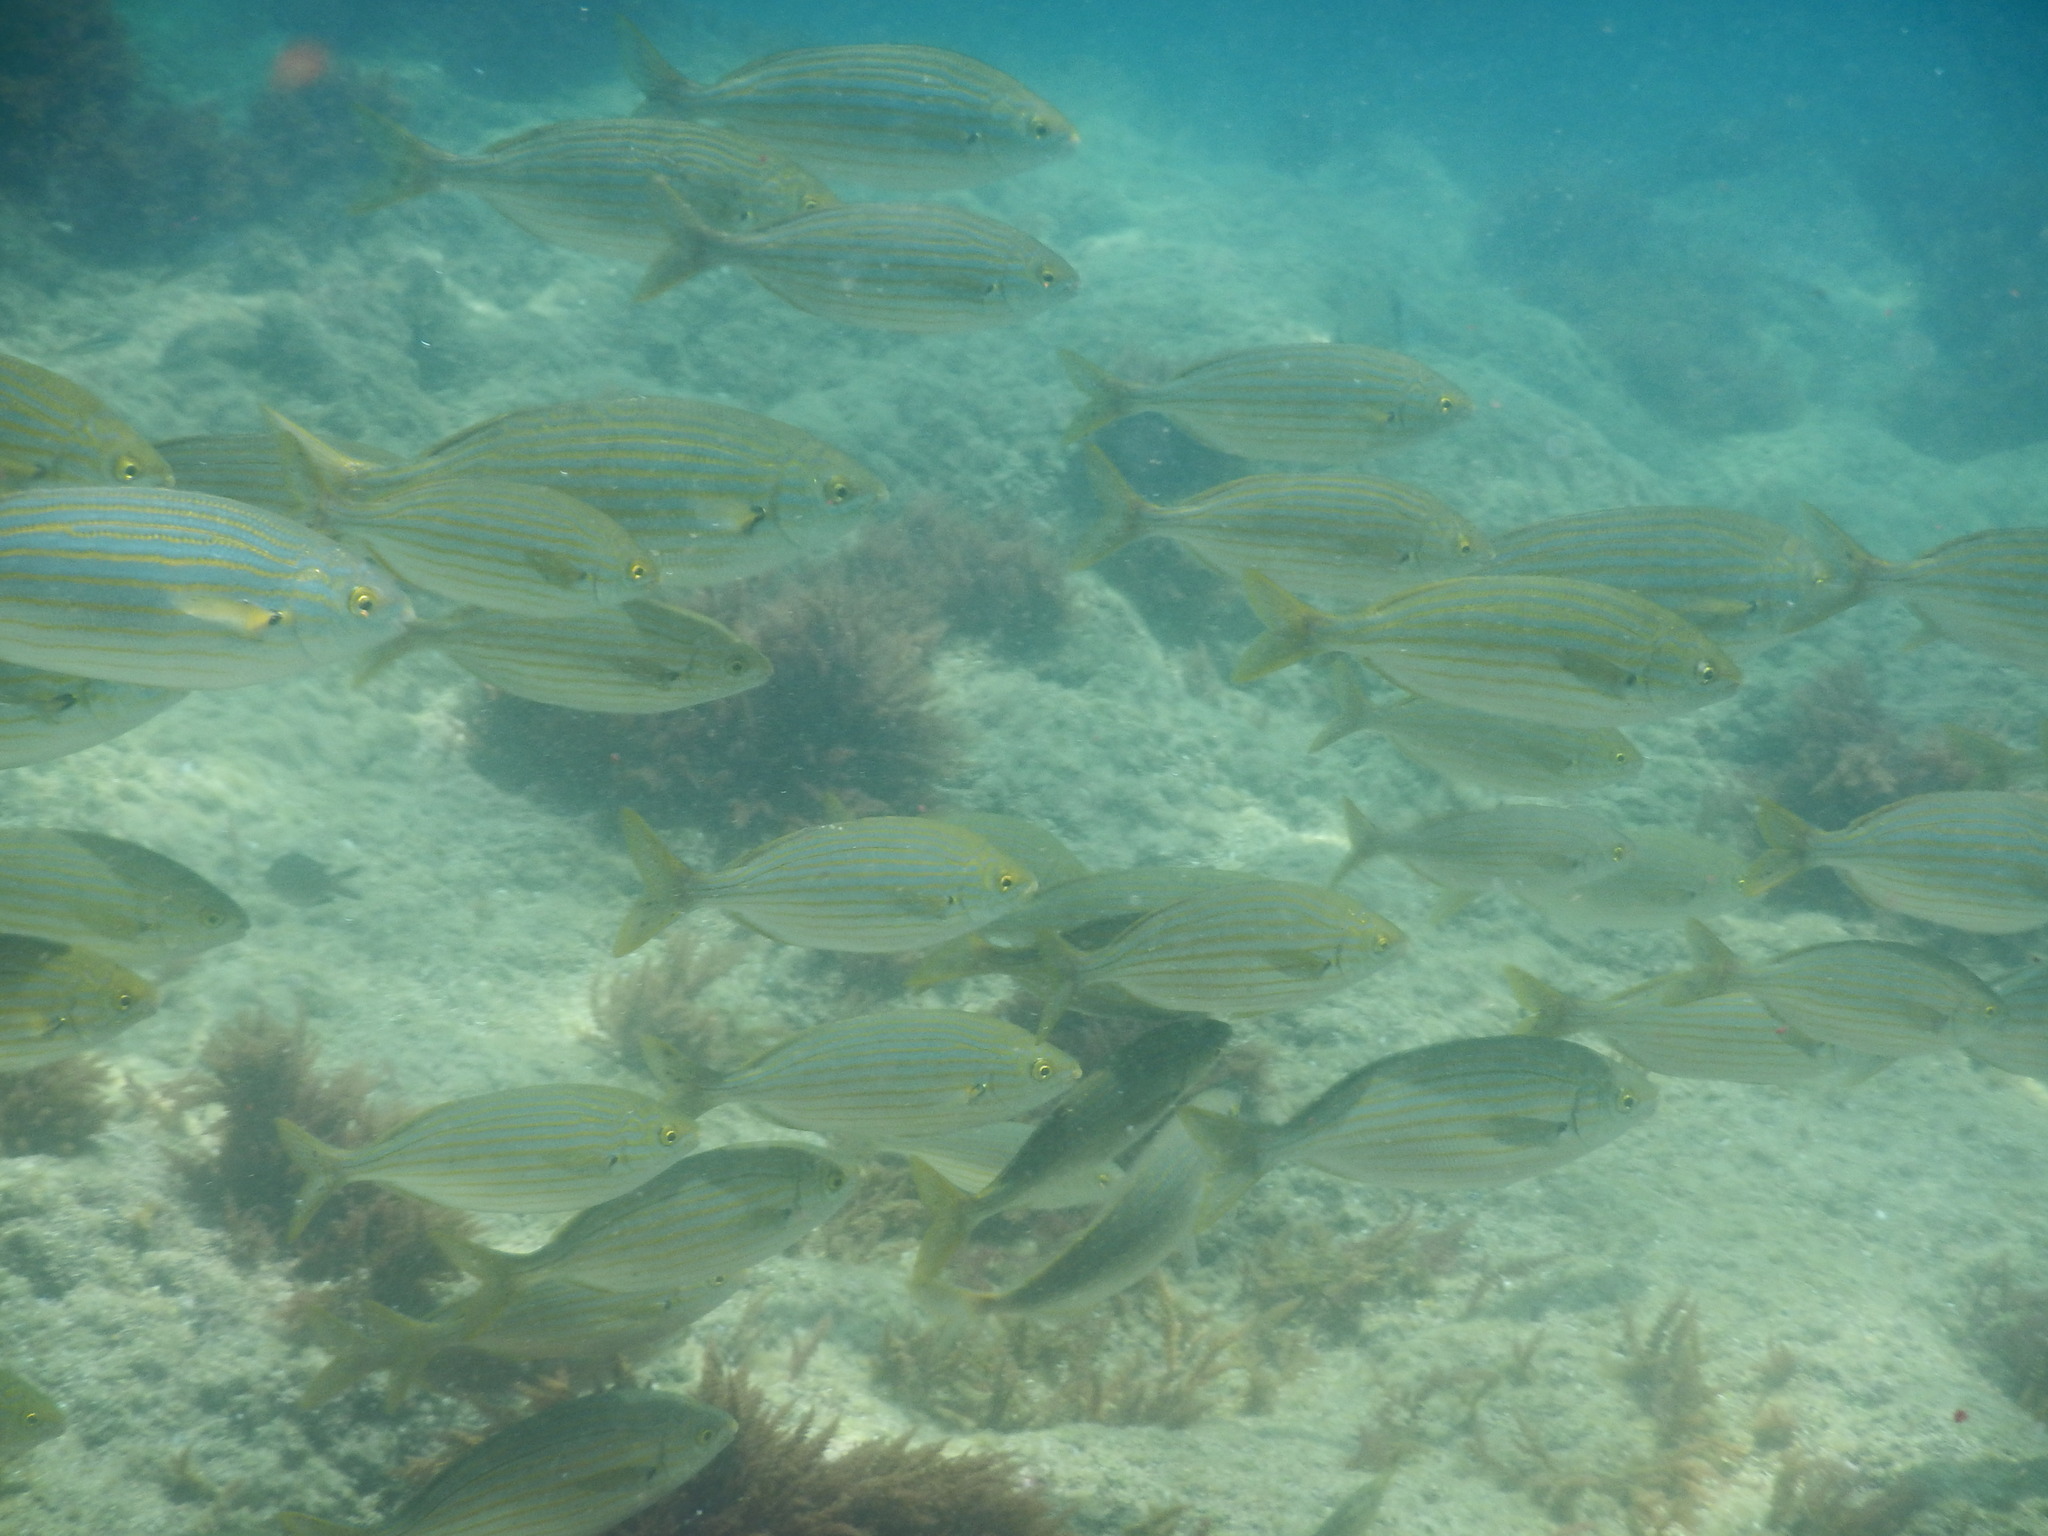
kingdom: Animalia
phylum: Chordata
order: Perciformes
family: Sparidae
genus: Sarpa
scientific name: Sarpa salpa
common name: Salema
